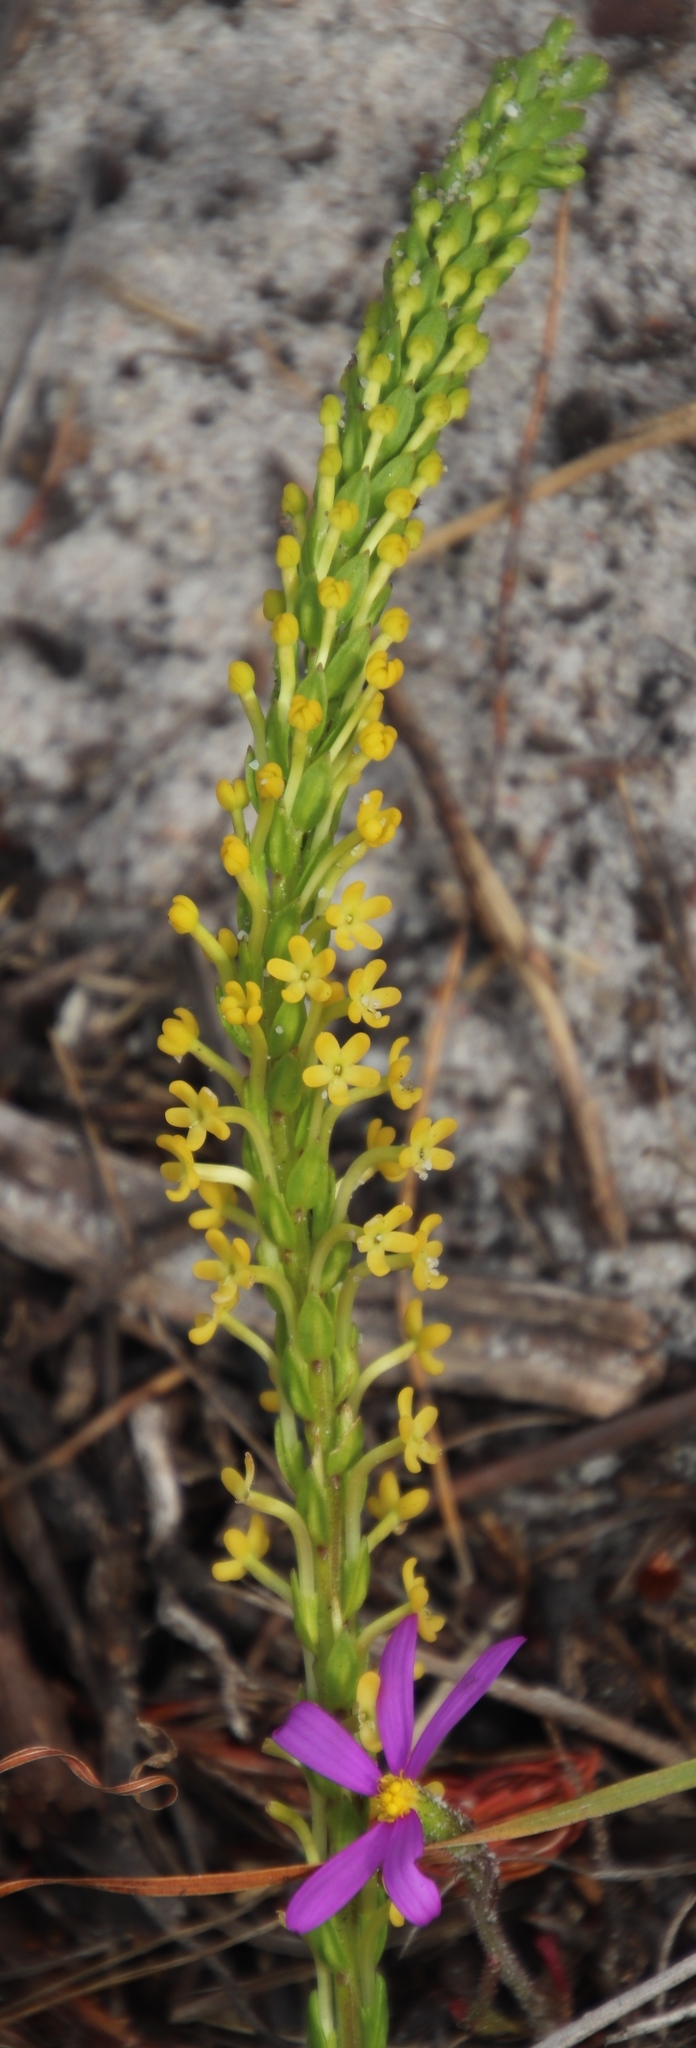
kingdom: Plantae
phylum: Tracheophyta
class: Magnoliopsida
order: Lamiales
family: Scrophulariaceae
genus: Microdon
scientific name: Microdon dubius
